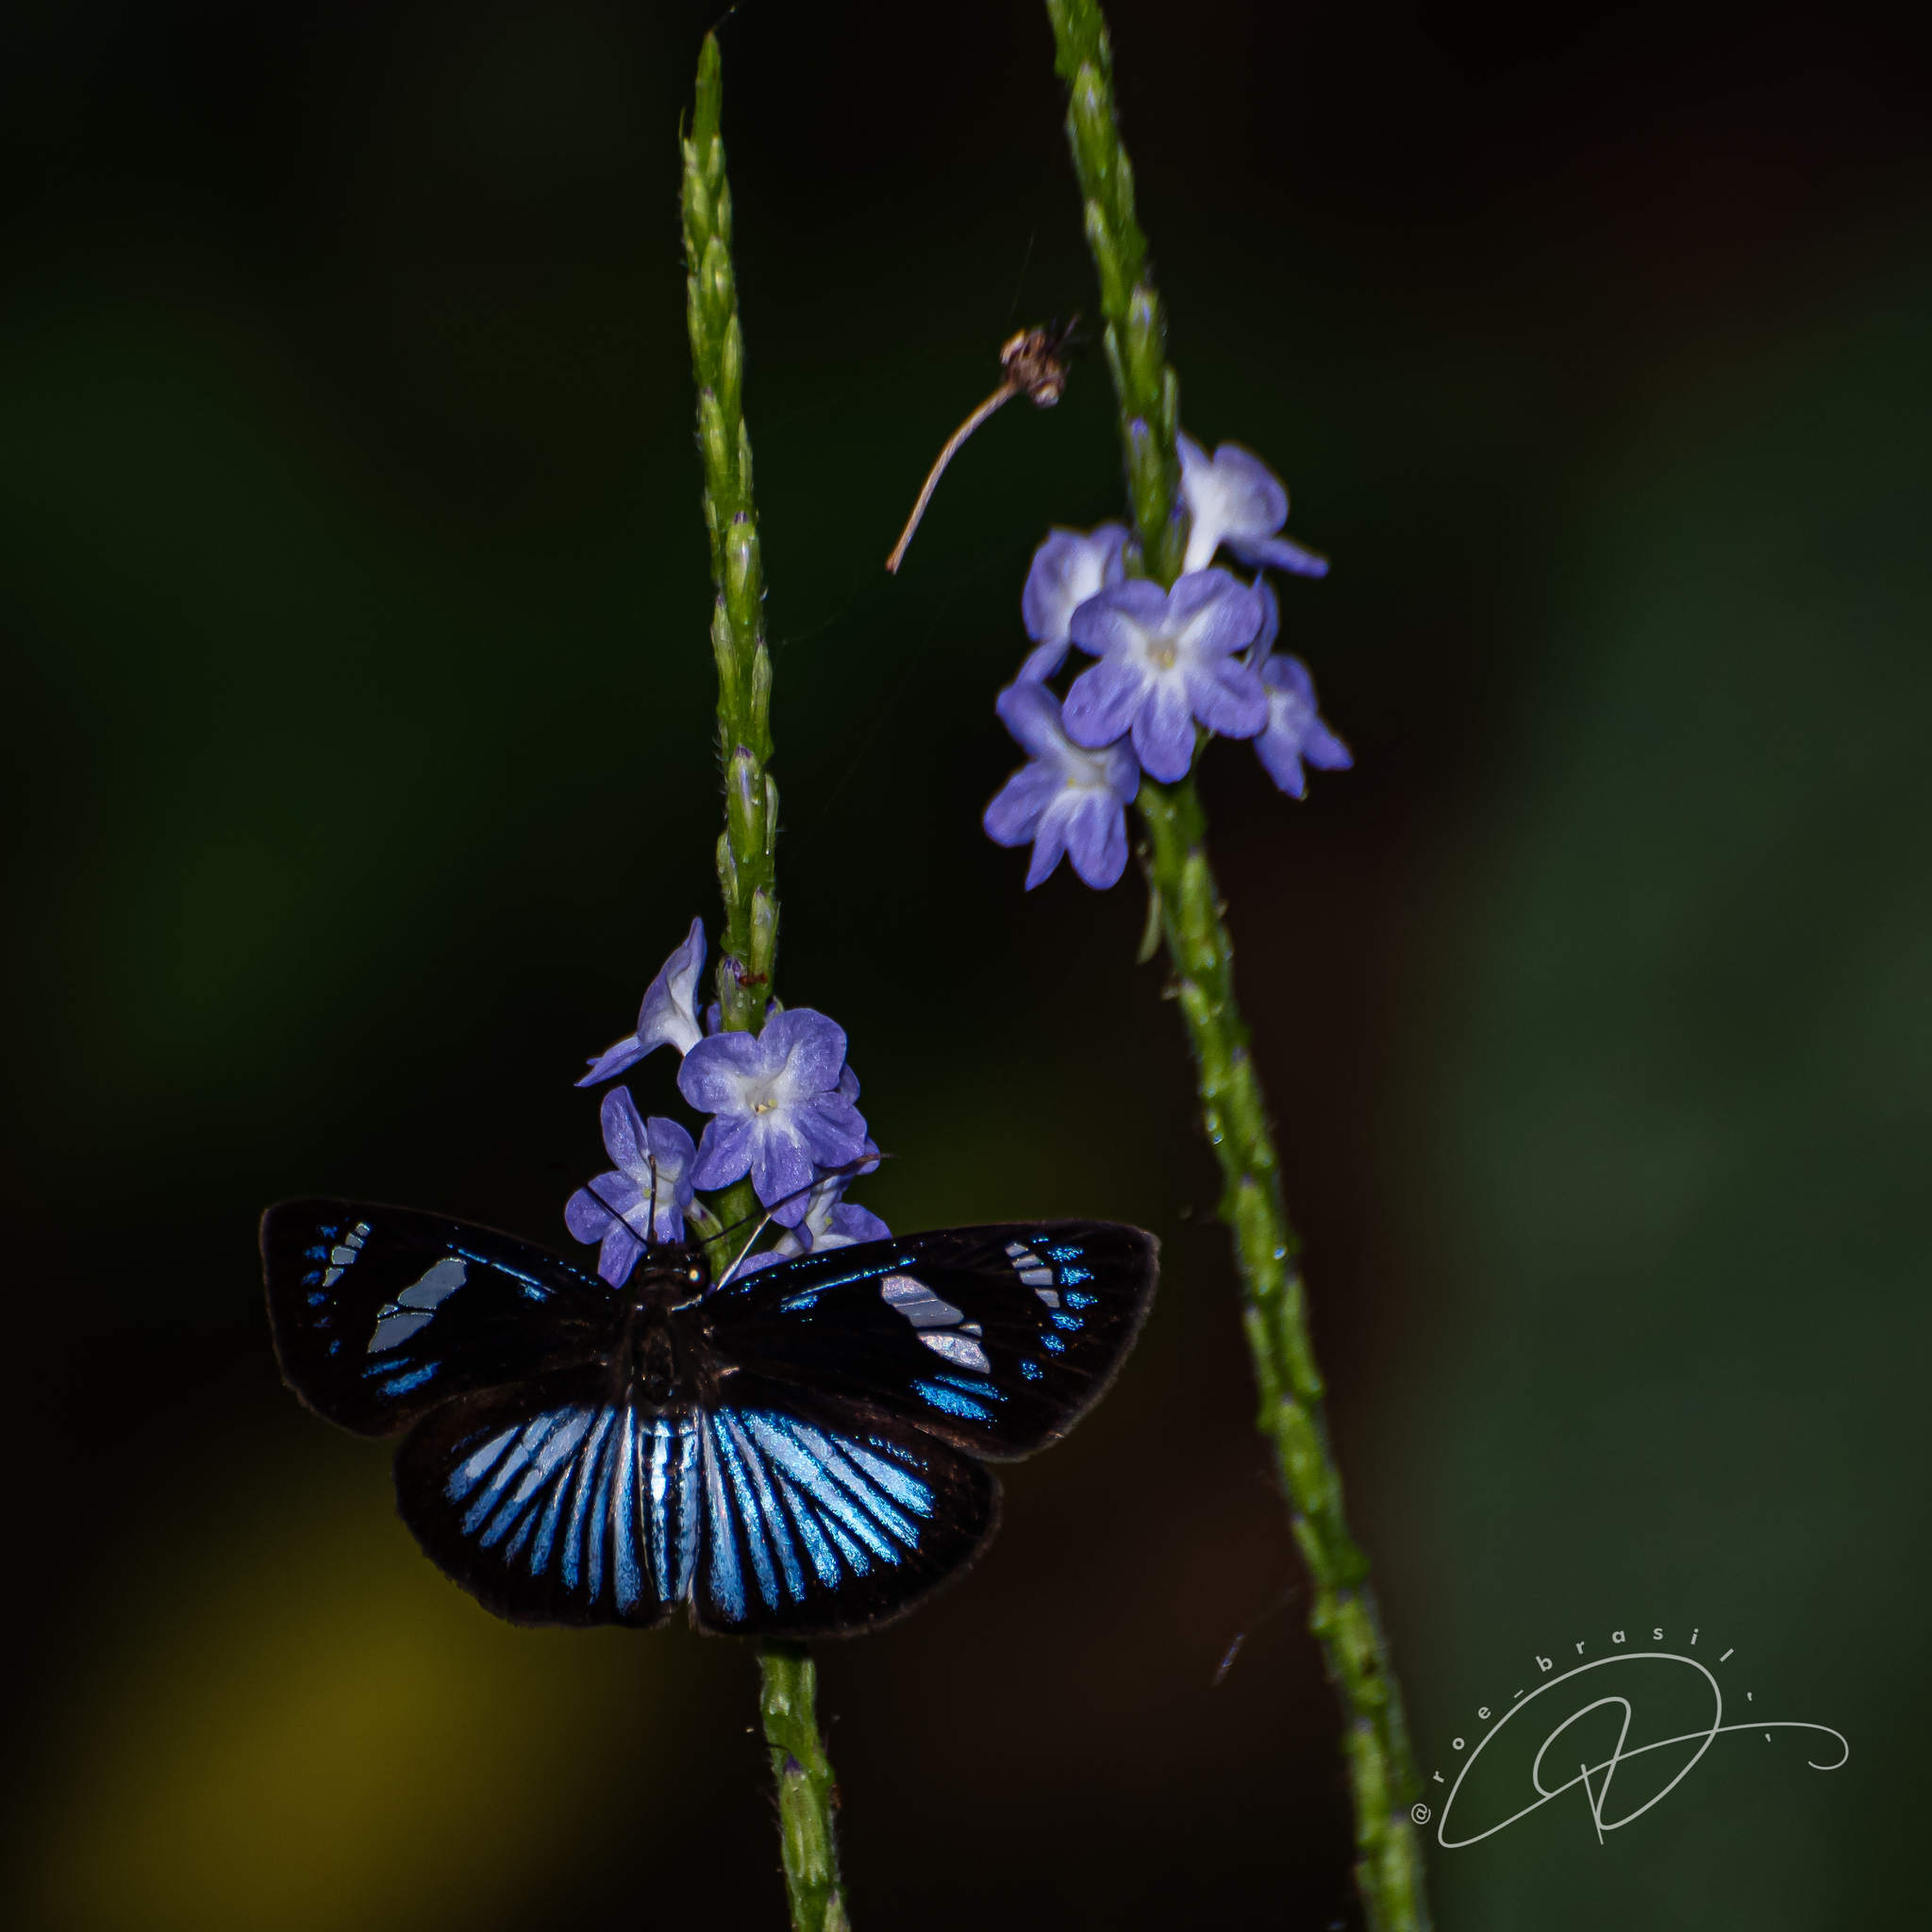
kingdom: Animalia
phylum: Arthropoda
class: Insecta
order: Lepidoptera
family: Hesperiidae
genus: Pythonides
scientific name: Pythonides jovianus
